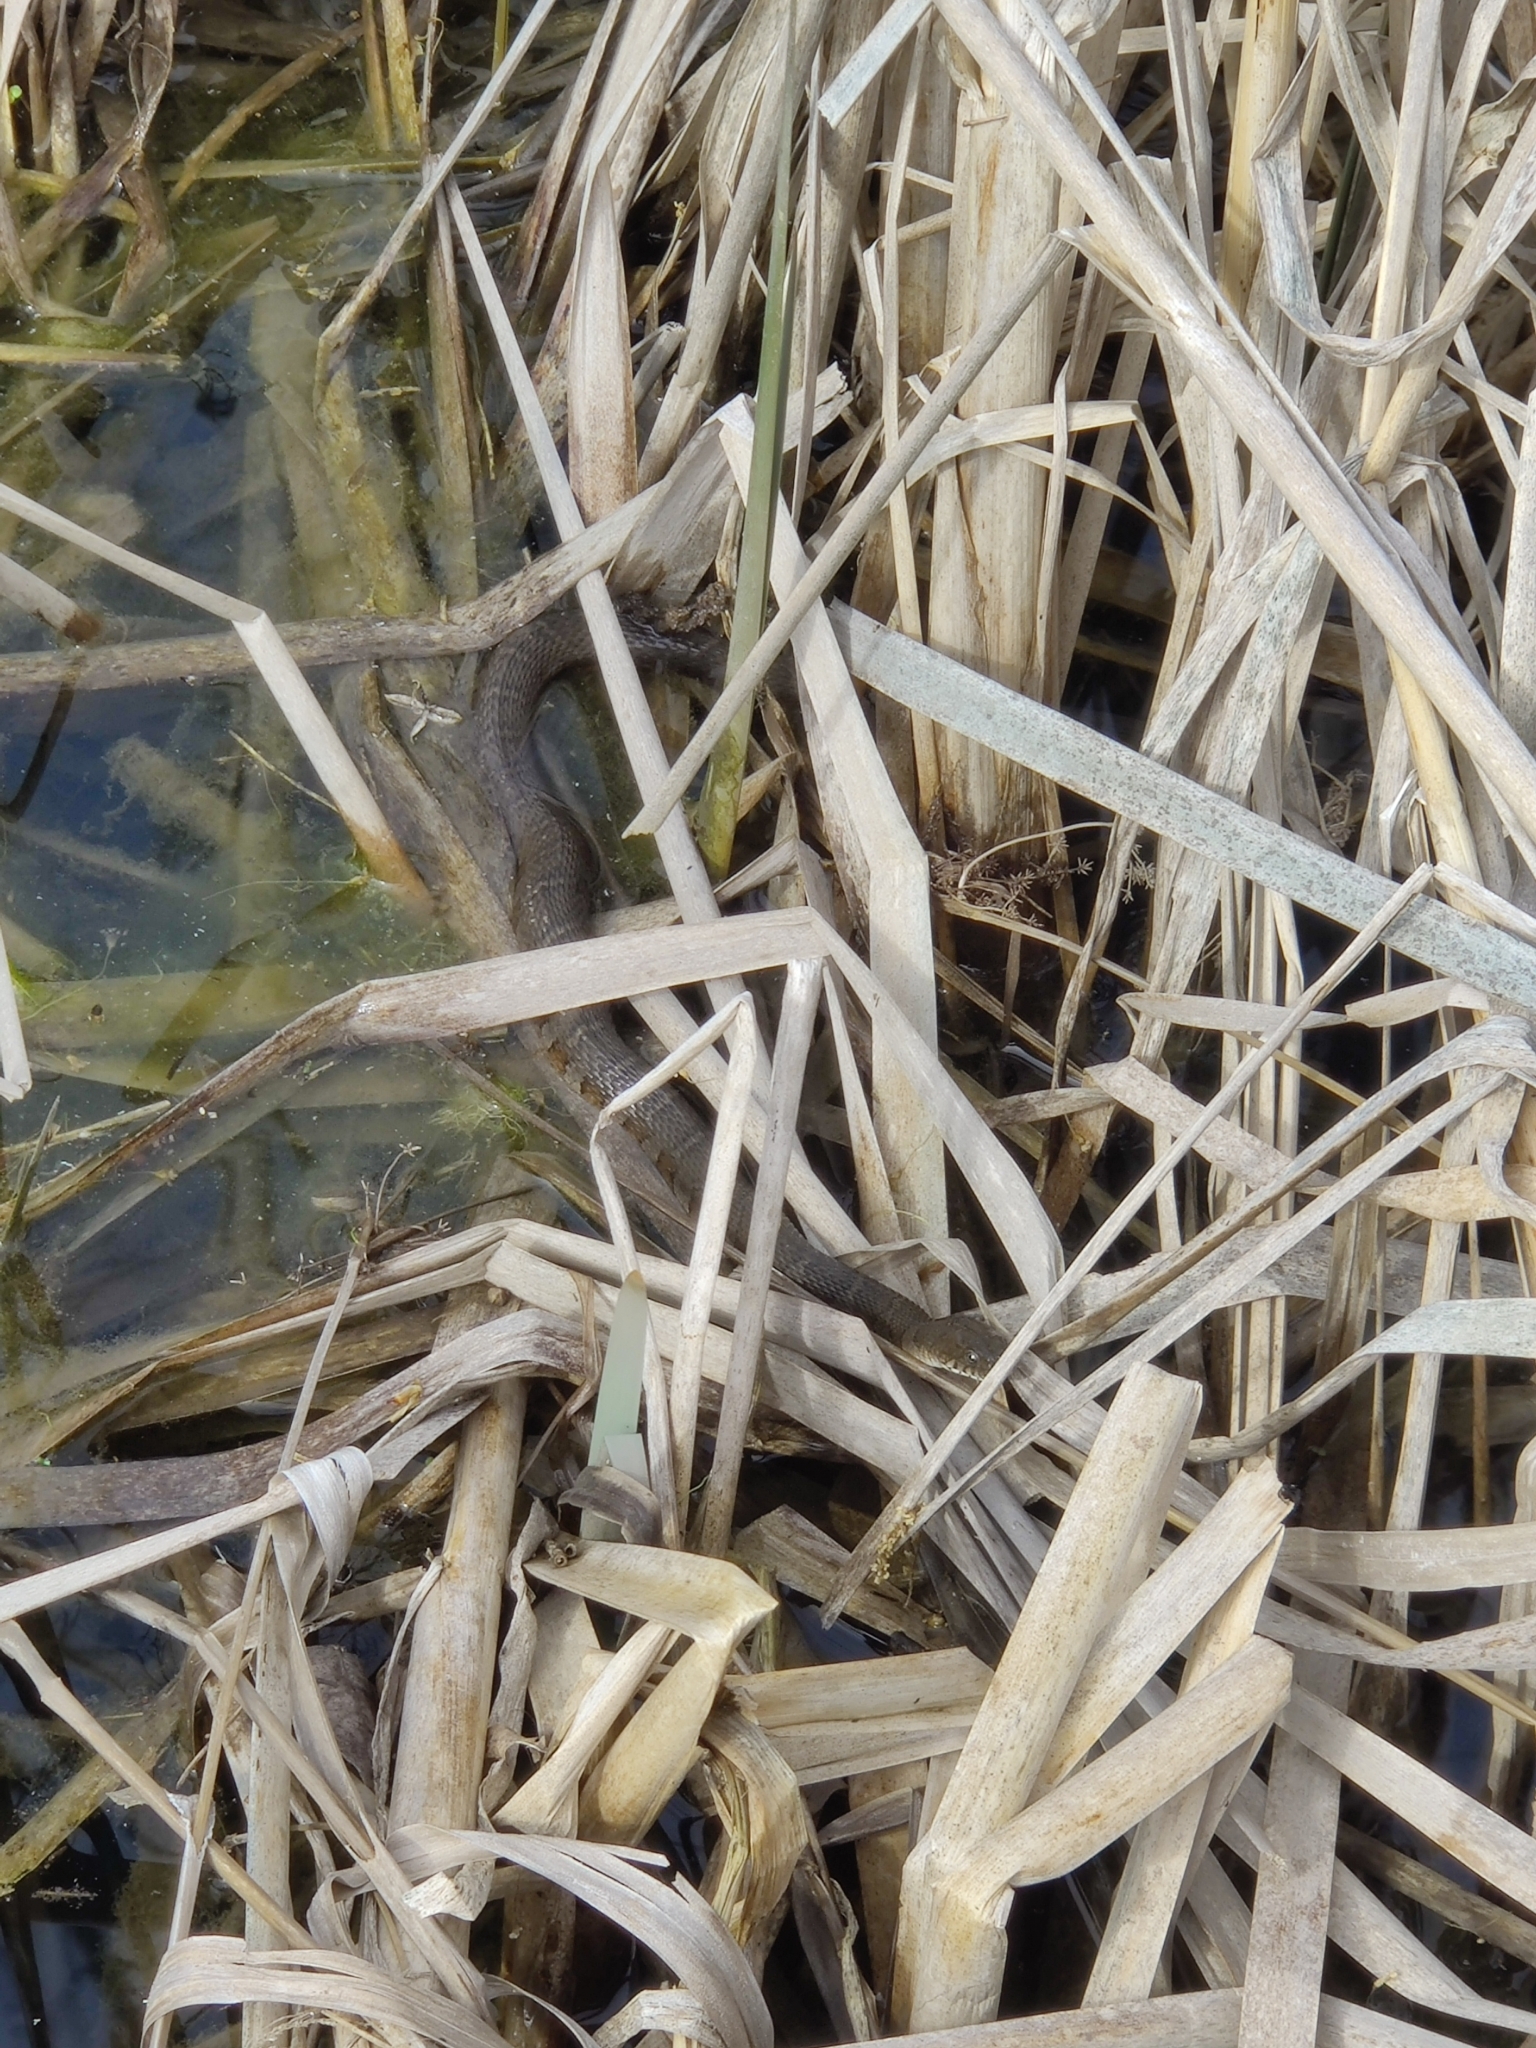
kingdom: Animalia
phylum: Chordata
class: Squamata
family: Colubridae
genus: Nerodia
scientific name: Nerodia sipedon
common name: Northern water snake
